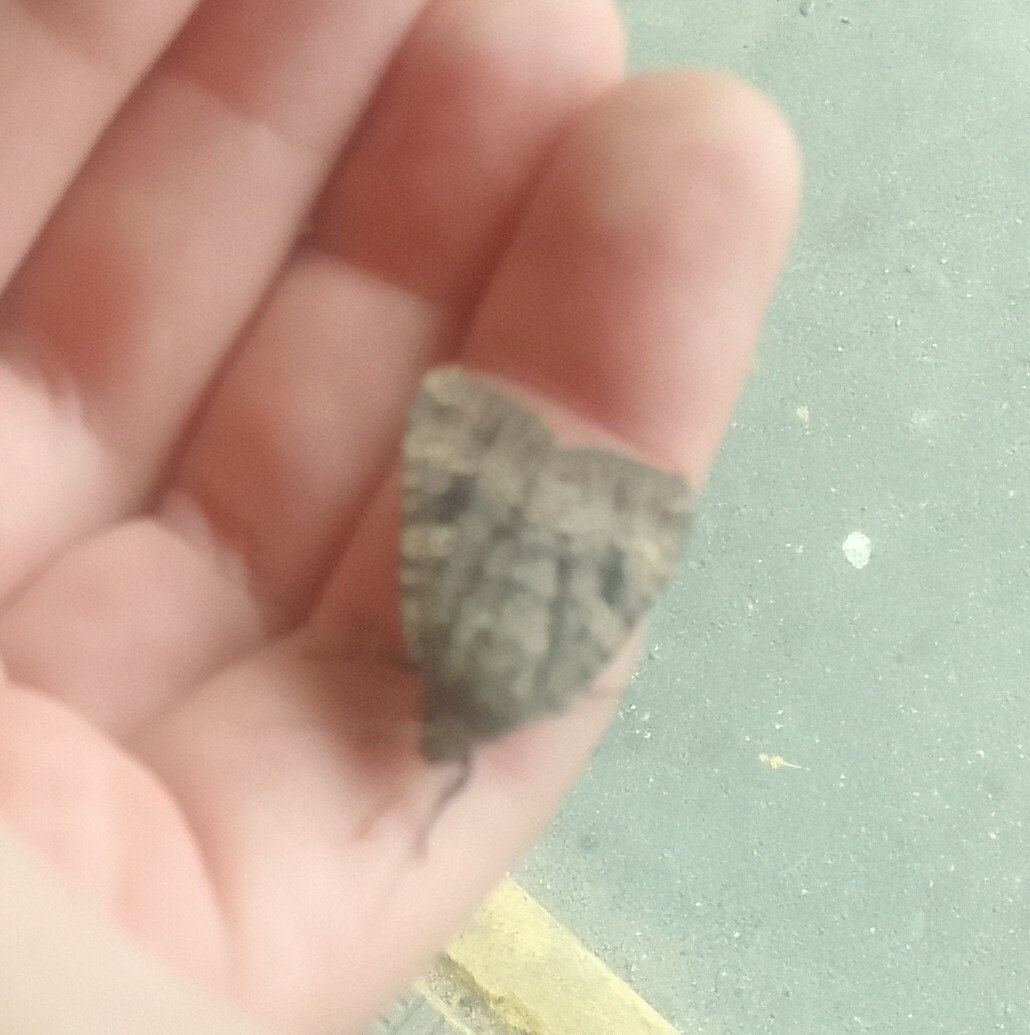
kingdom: Animalia
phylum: Arthropoda
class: Insecta
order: Lepidoptera
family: Noctuidae
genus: Amphipyra
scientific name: Amphipyra berbera
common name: Svensson's copper underwing
